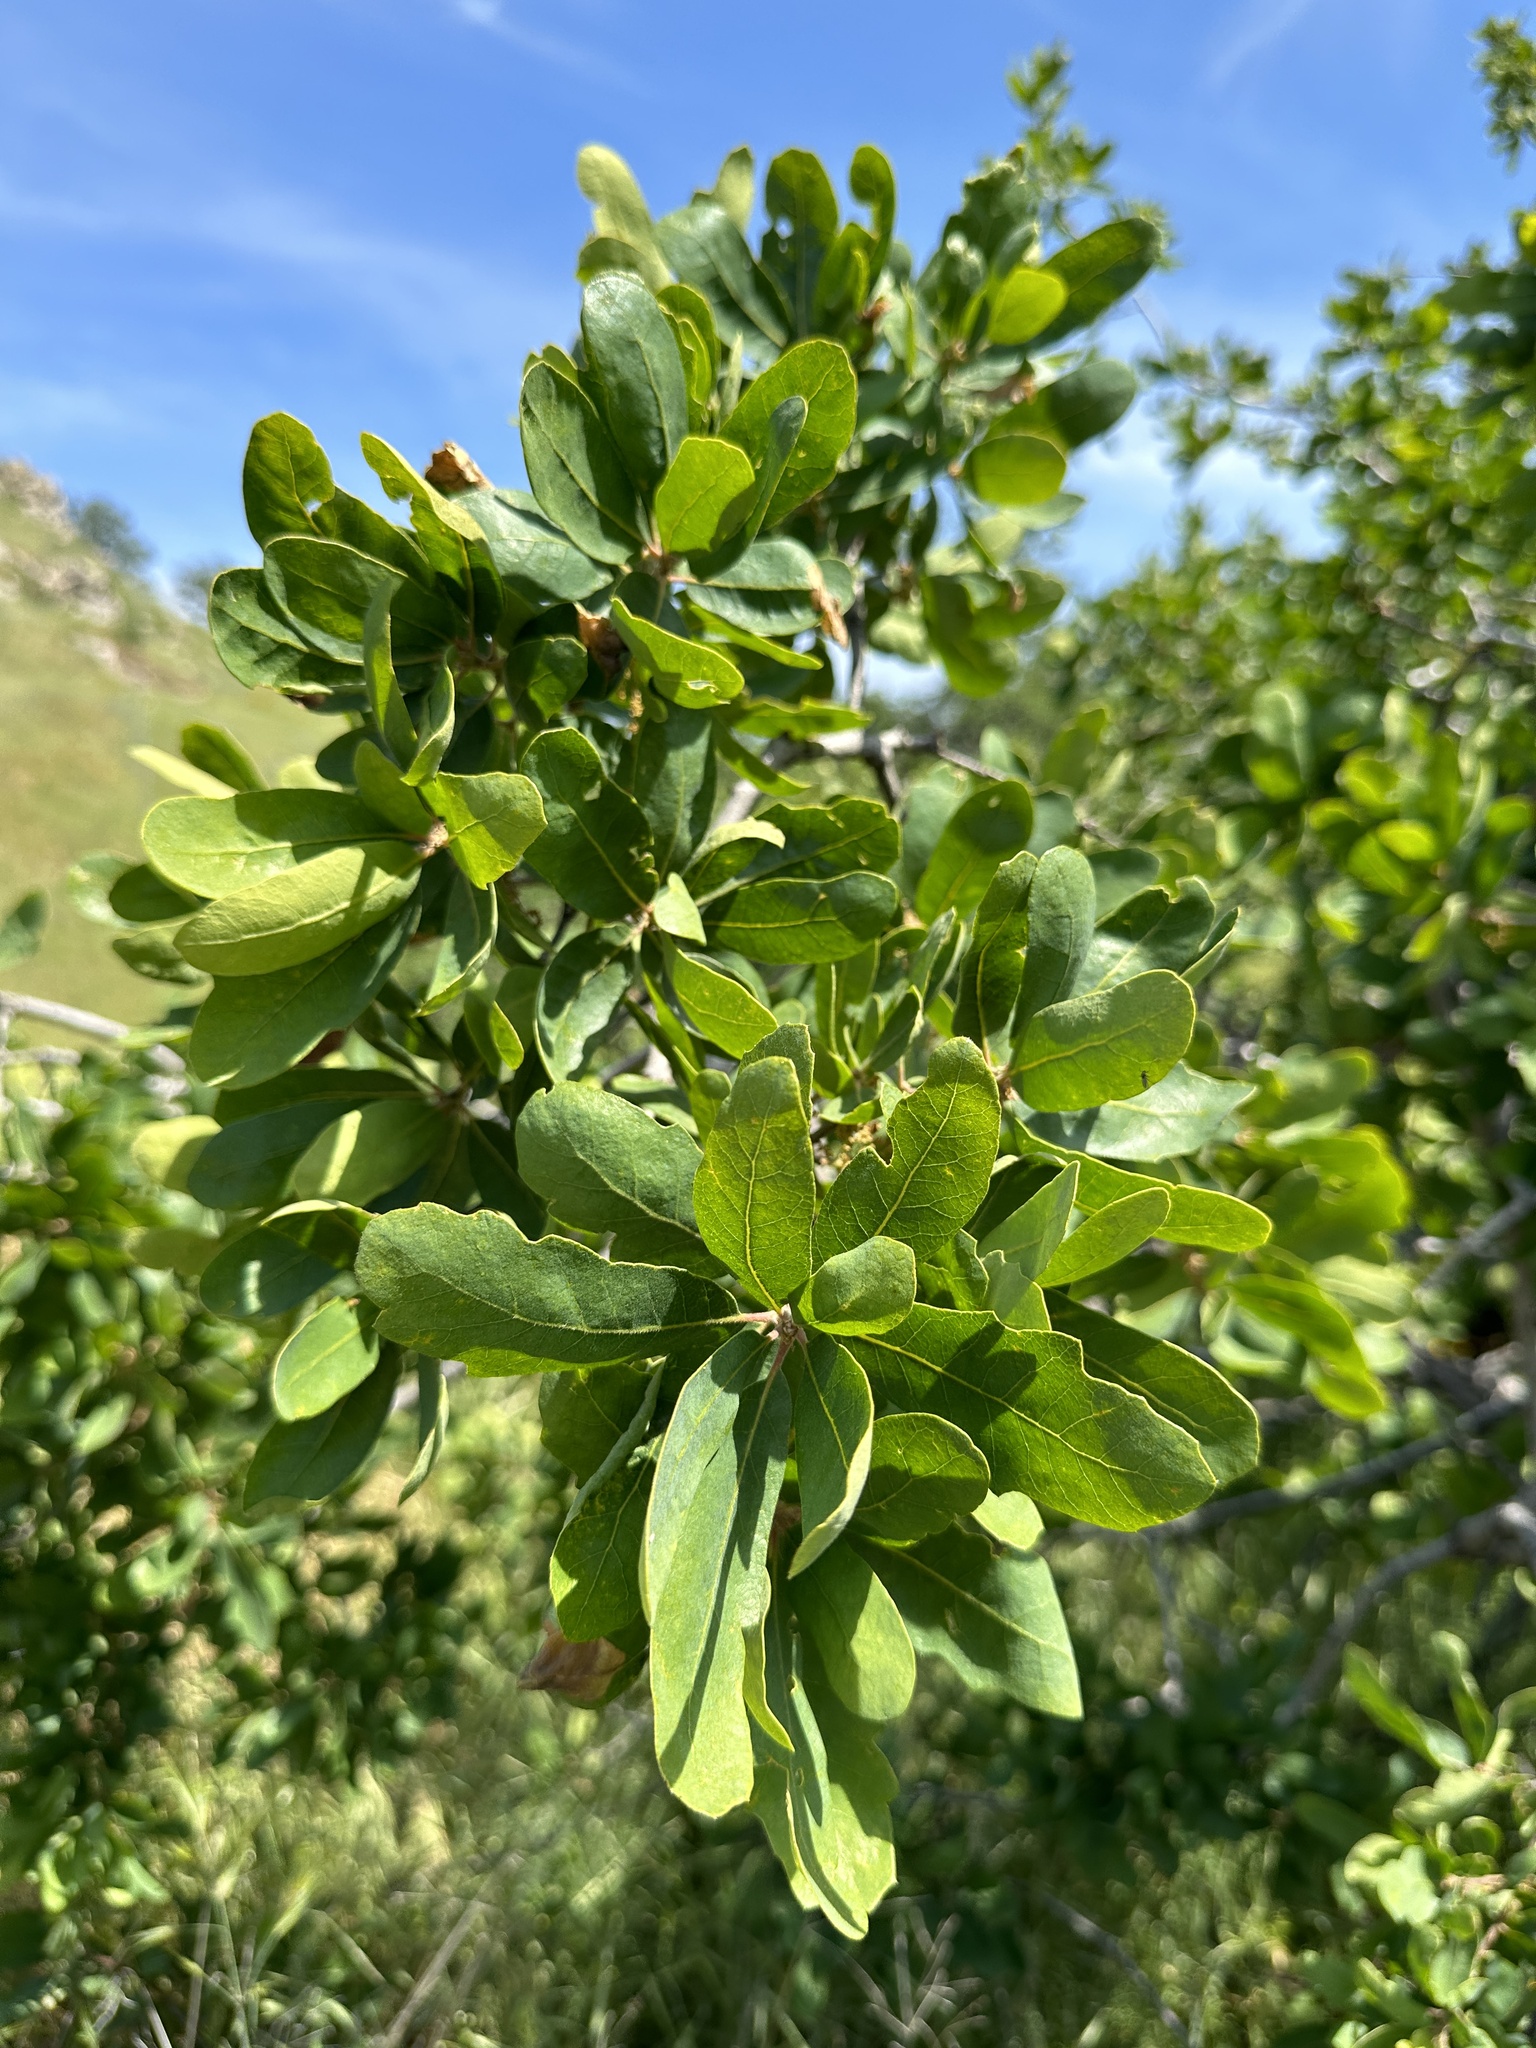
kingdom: Plantae
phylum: Tracheophyta
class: Magnoliopsida
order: Fagales
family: Fagaceae
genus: Quercus
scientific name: Quercus douglasii
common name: Blue oak
